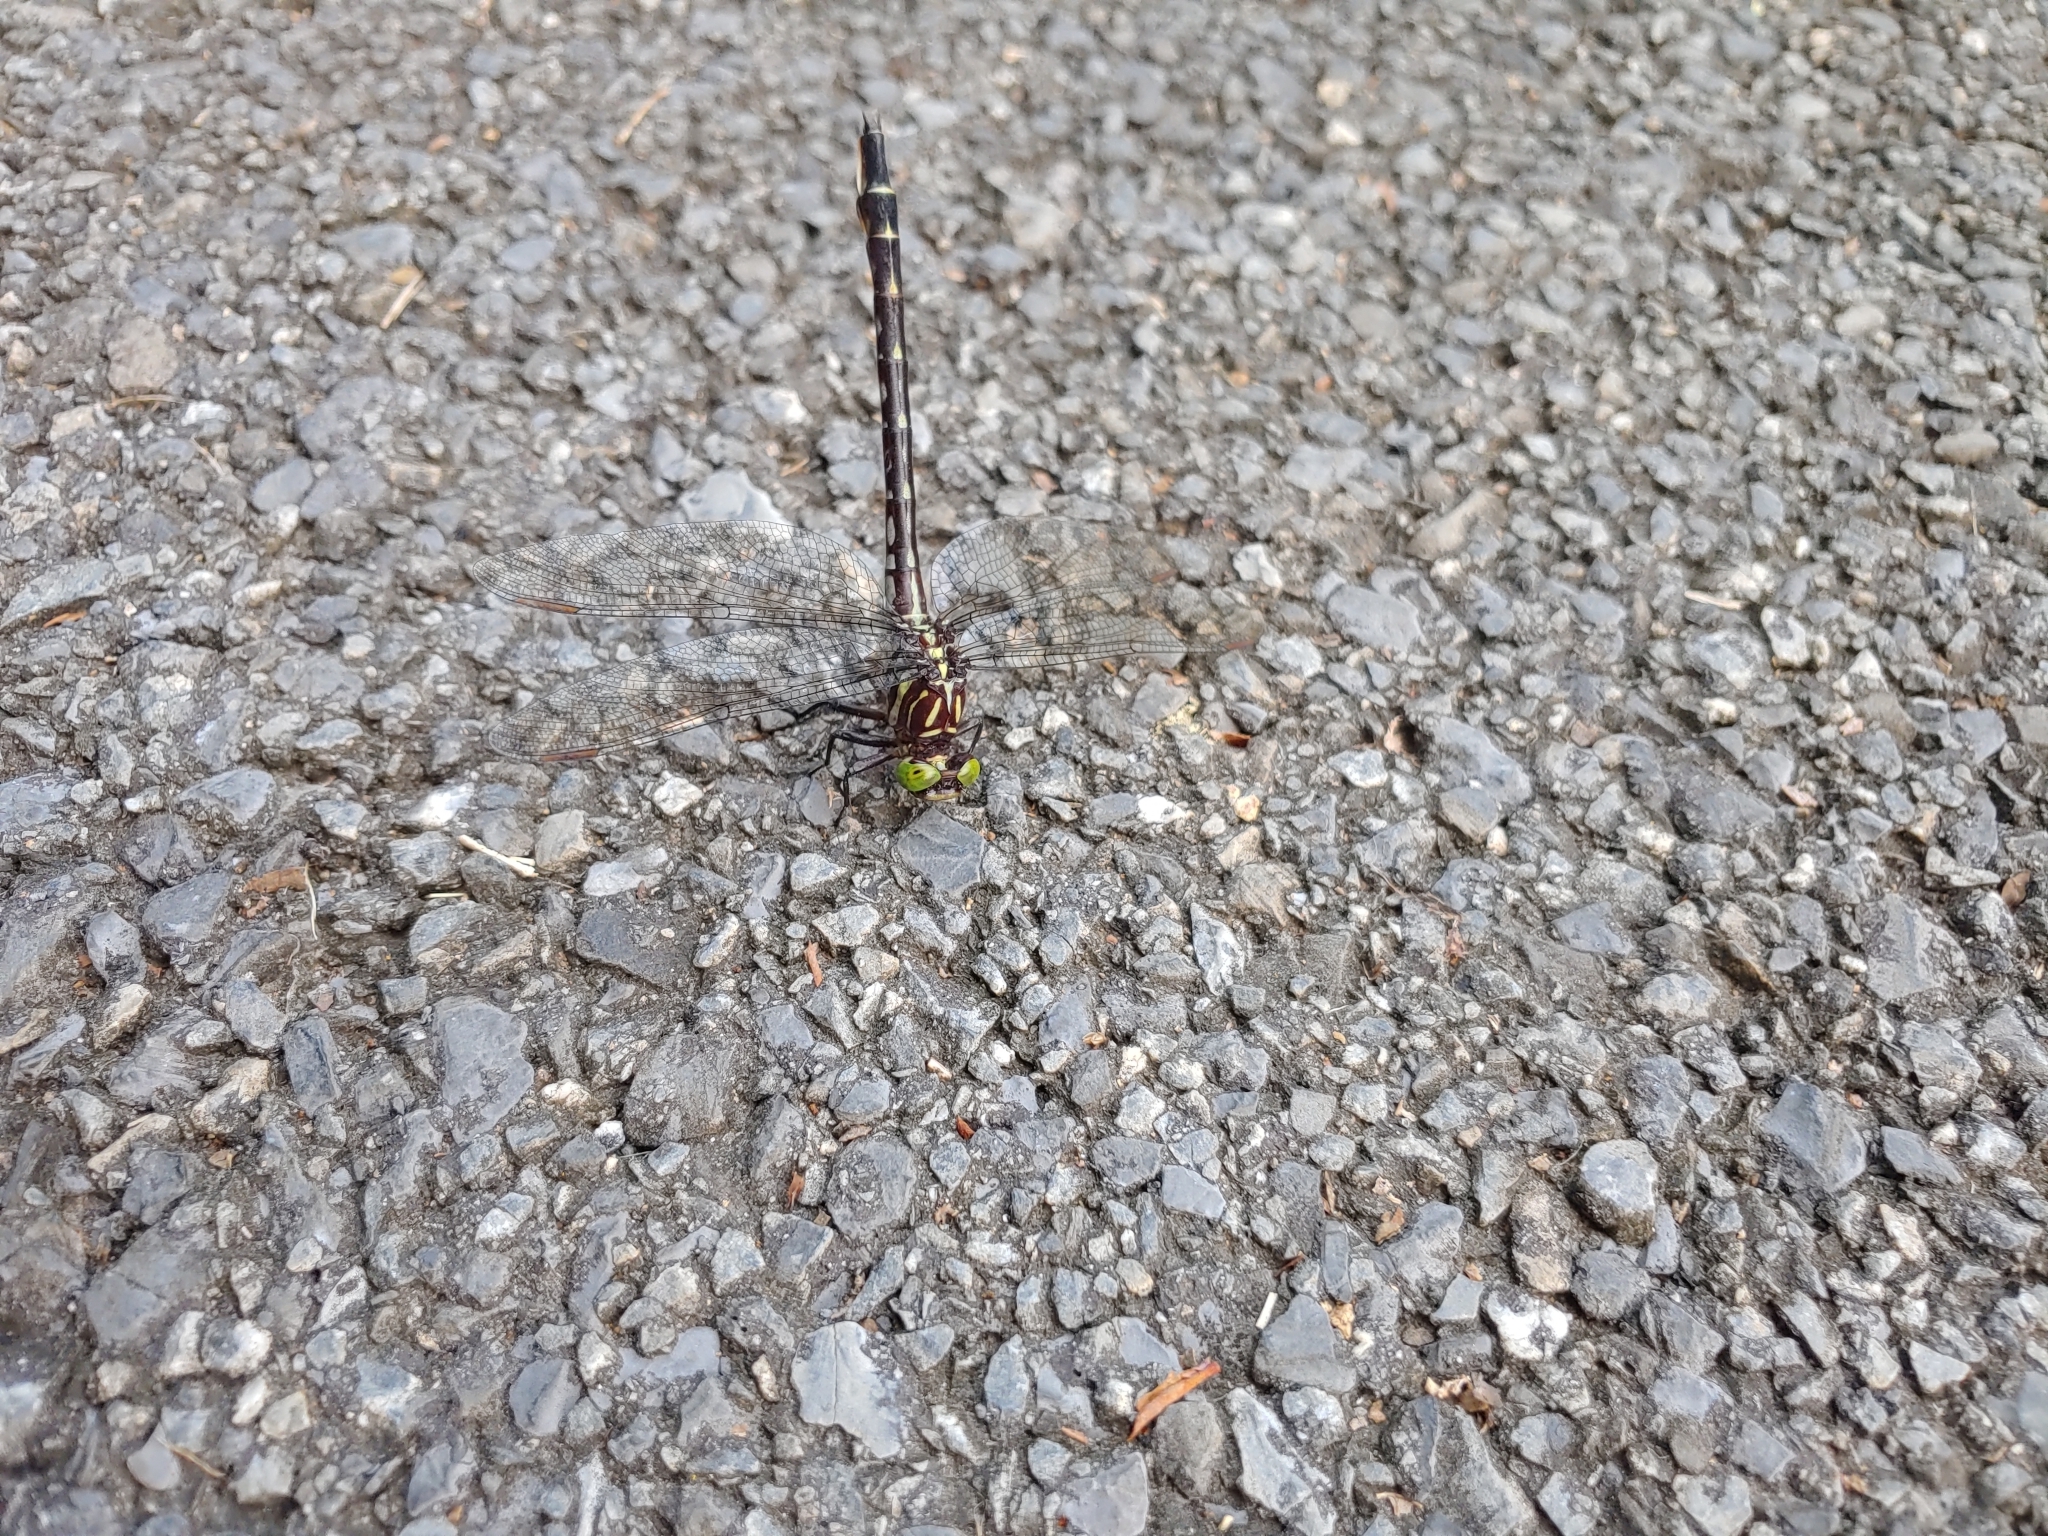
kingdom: Animalia
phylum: Arthropoda
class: Insecta
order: Odonata
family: Gomphidae
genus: Stylurus
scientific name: Stylurus spiniceps
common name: Arrow clubtail
